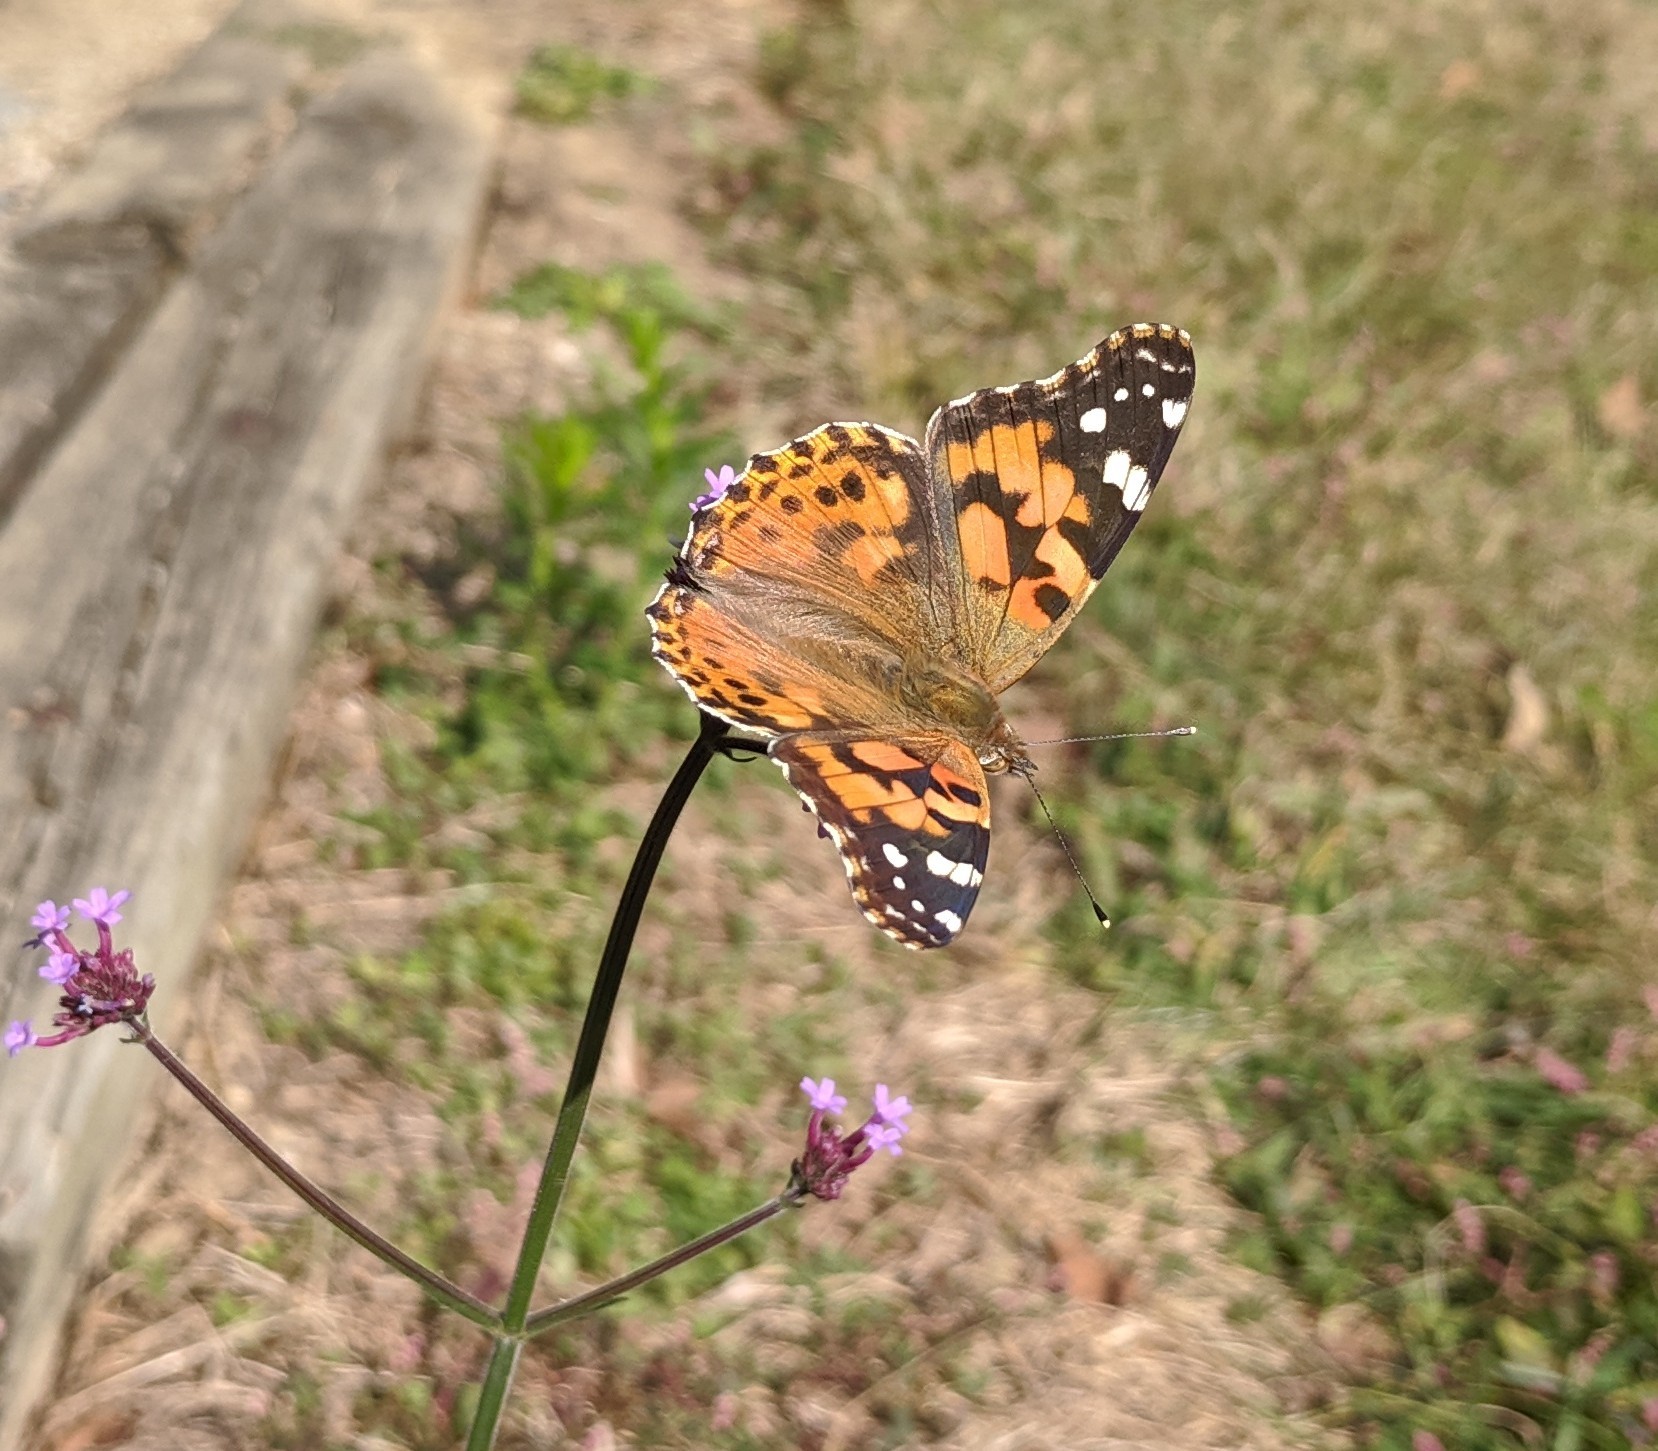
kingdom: Animalia
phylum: Arthropoda
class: Insecta
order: Lepidoptera
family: Nymphalidae
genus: Vanessa
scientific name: Vanessa cardui
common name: Painted lady
